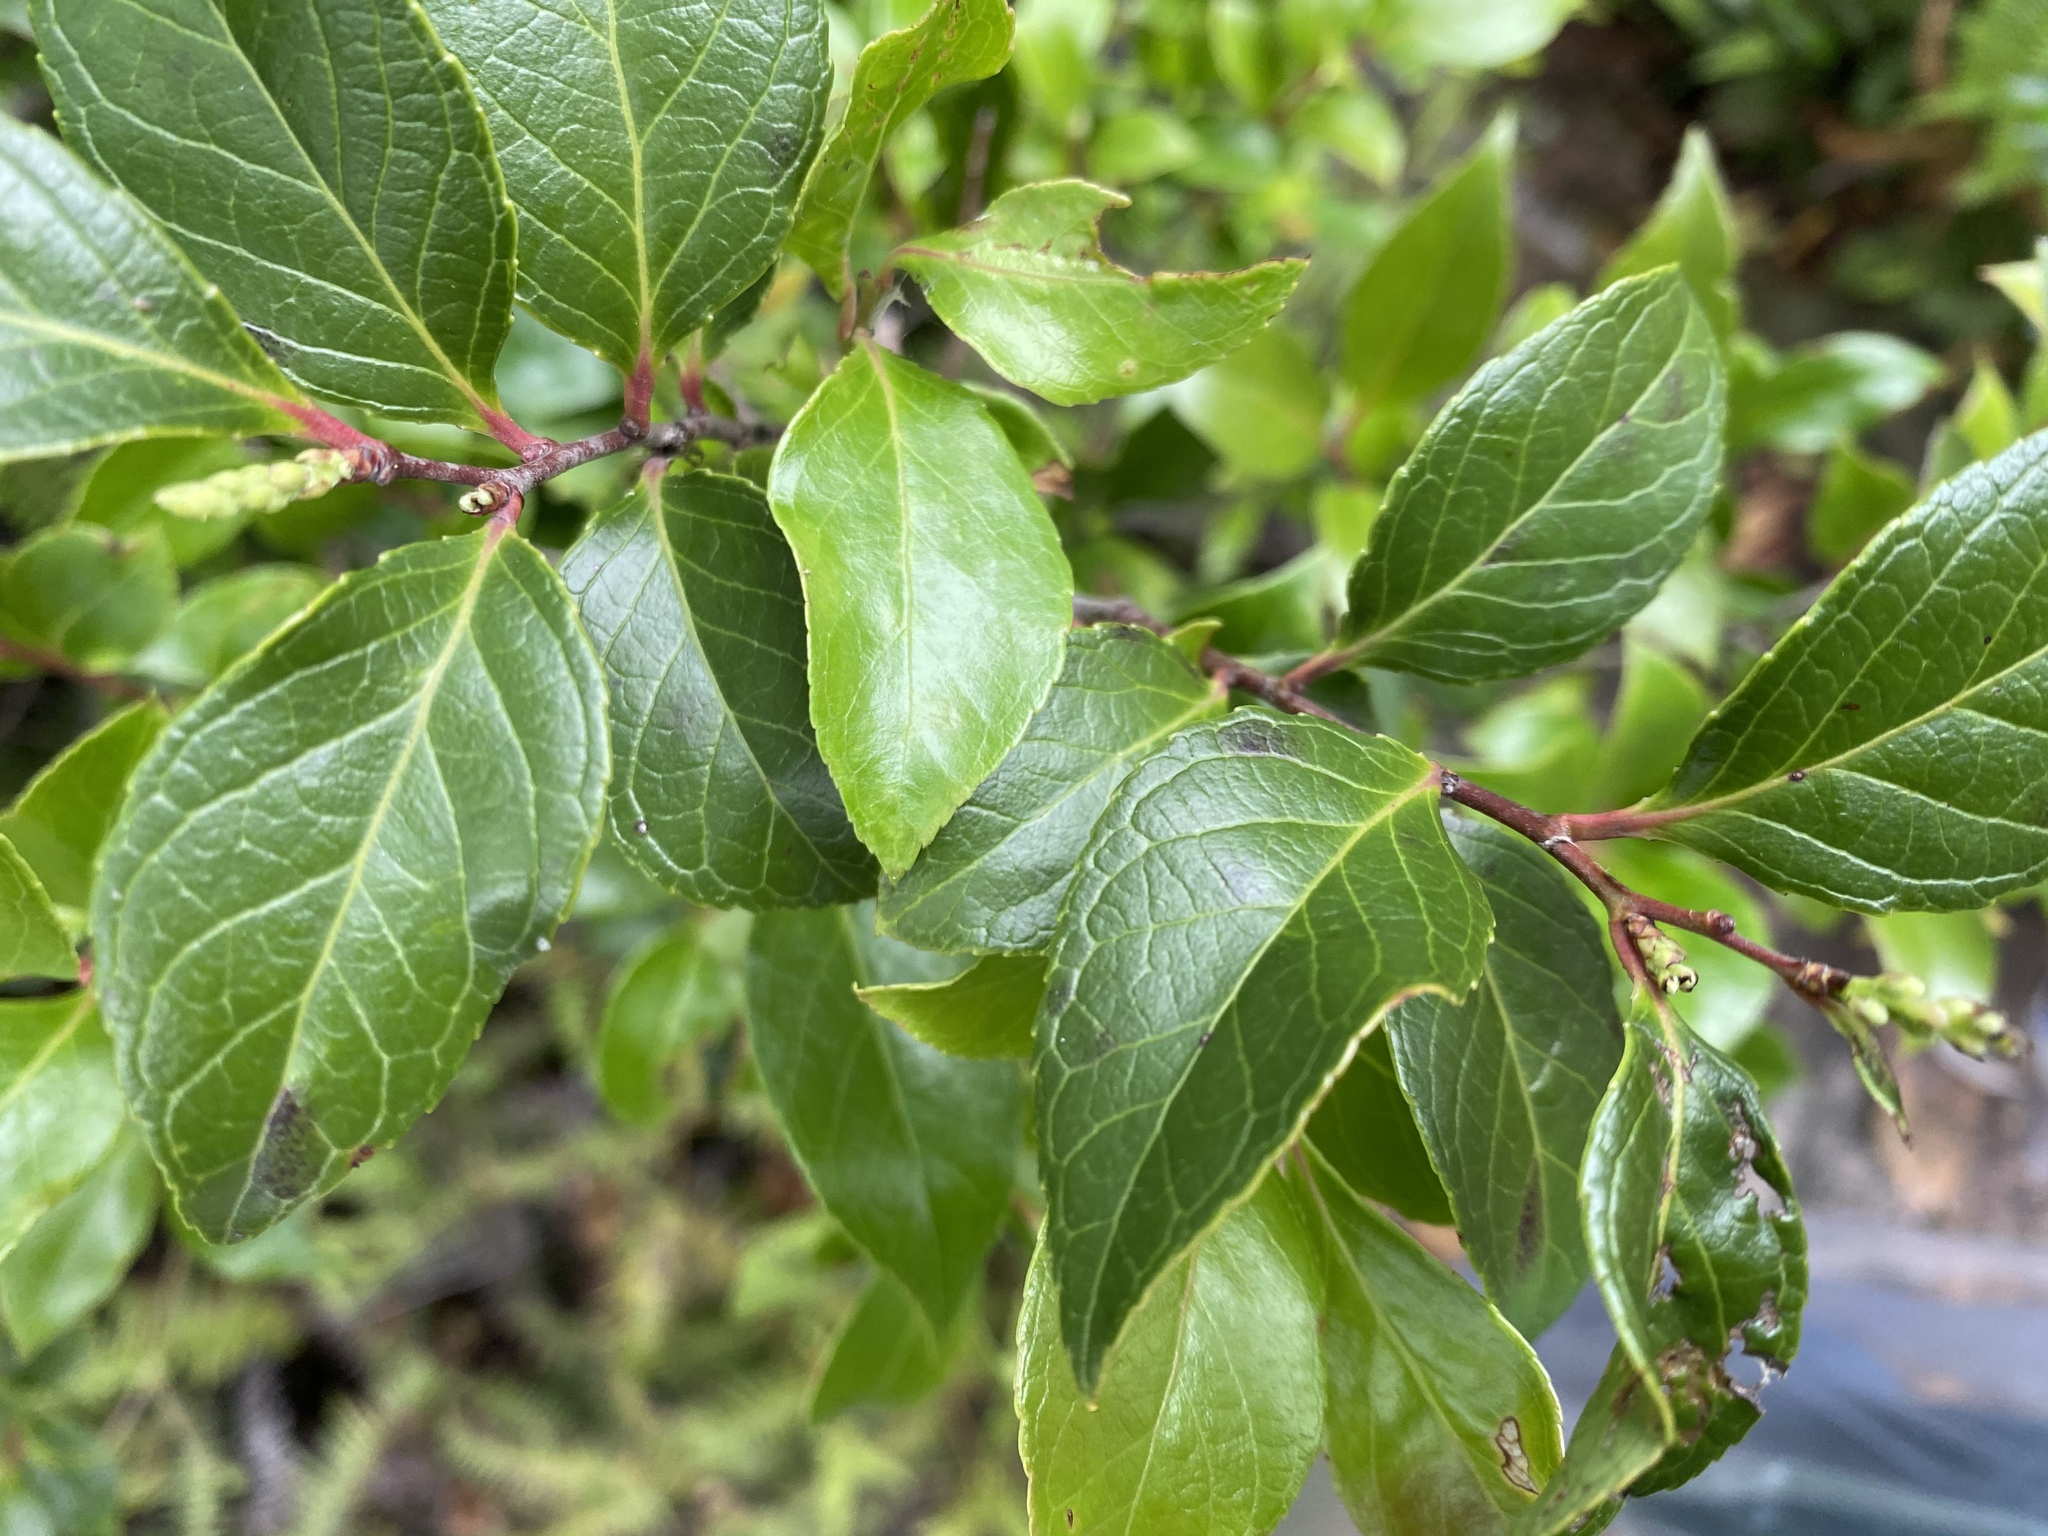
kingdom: Plantae
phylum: Tracheophyta
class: Magnoliopsida
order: Ericales
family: Ericaceae
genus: Vaccinium
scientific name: Vaccinium bracteatum
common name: Sea bilberry
